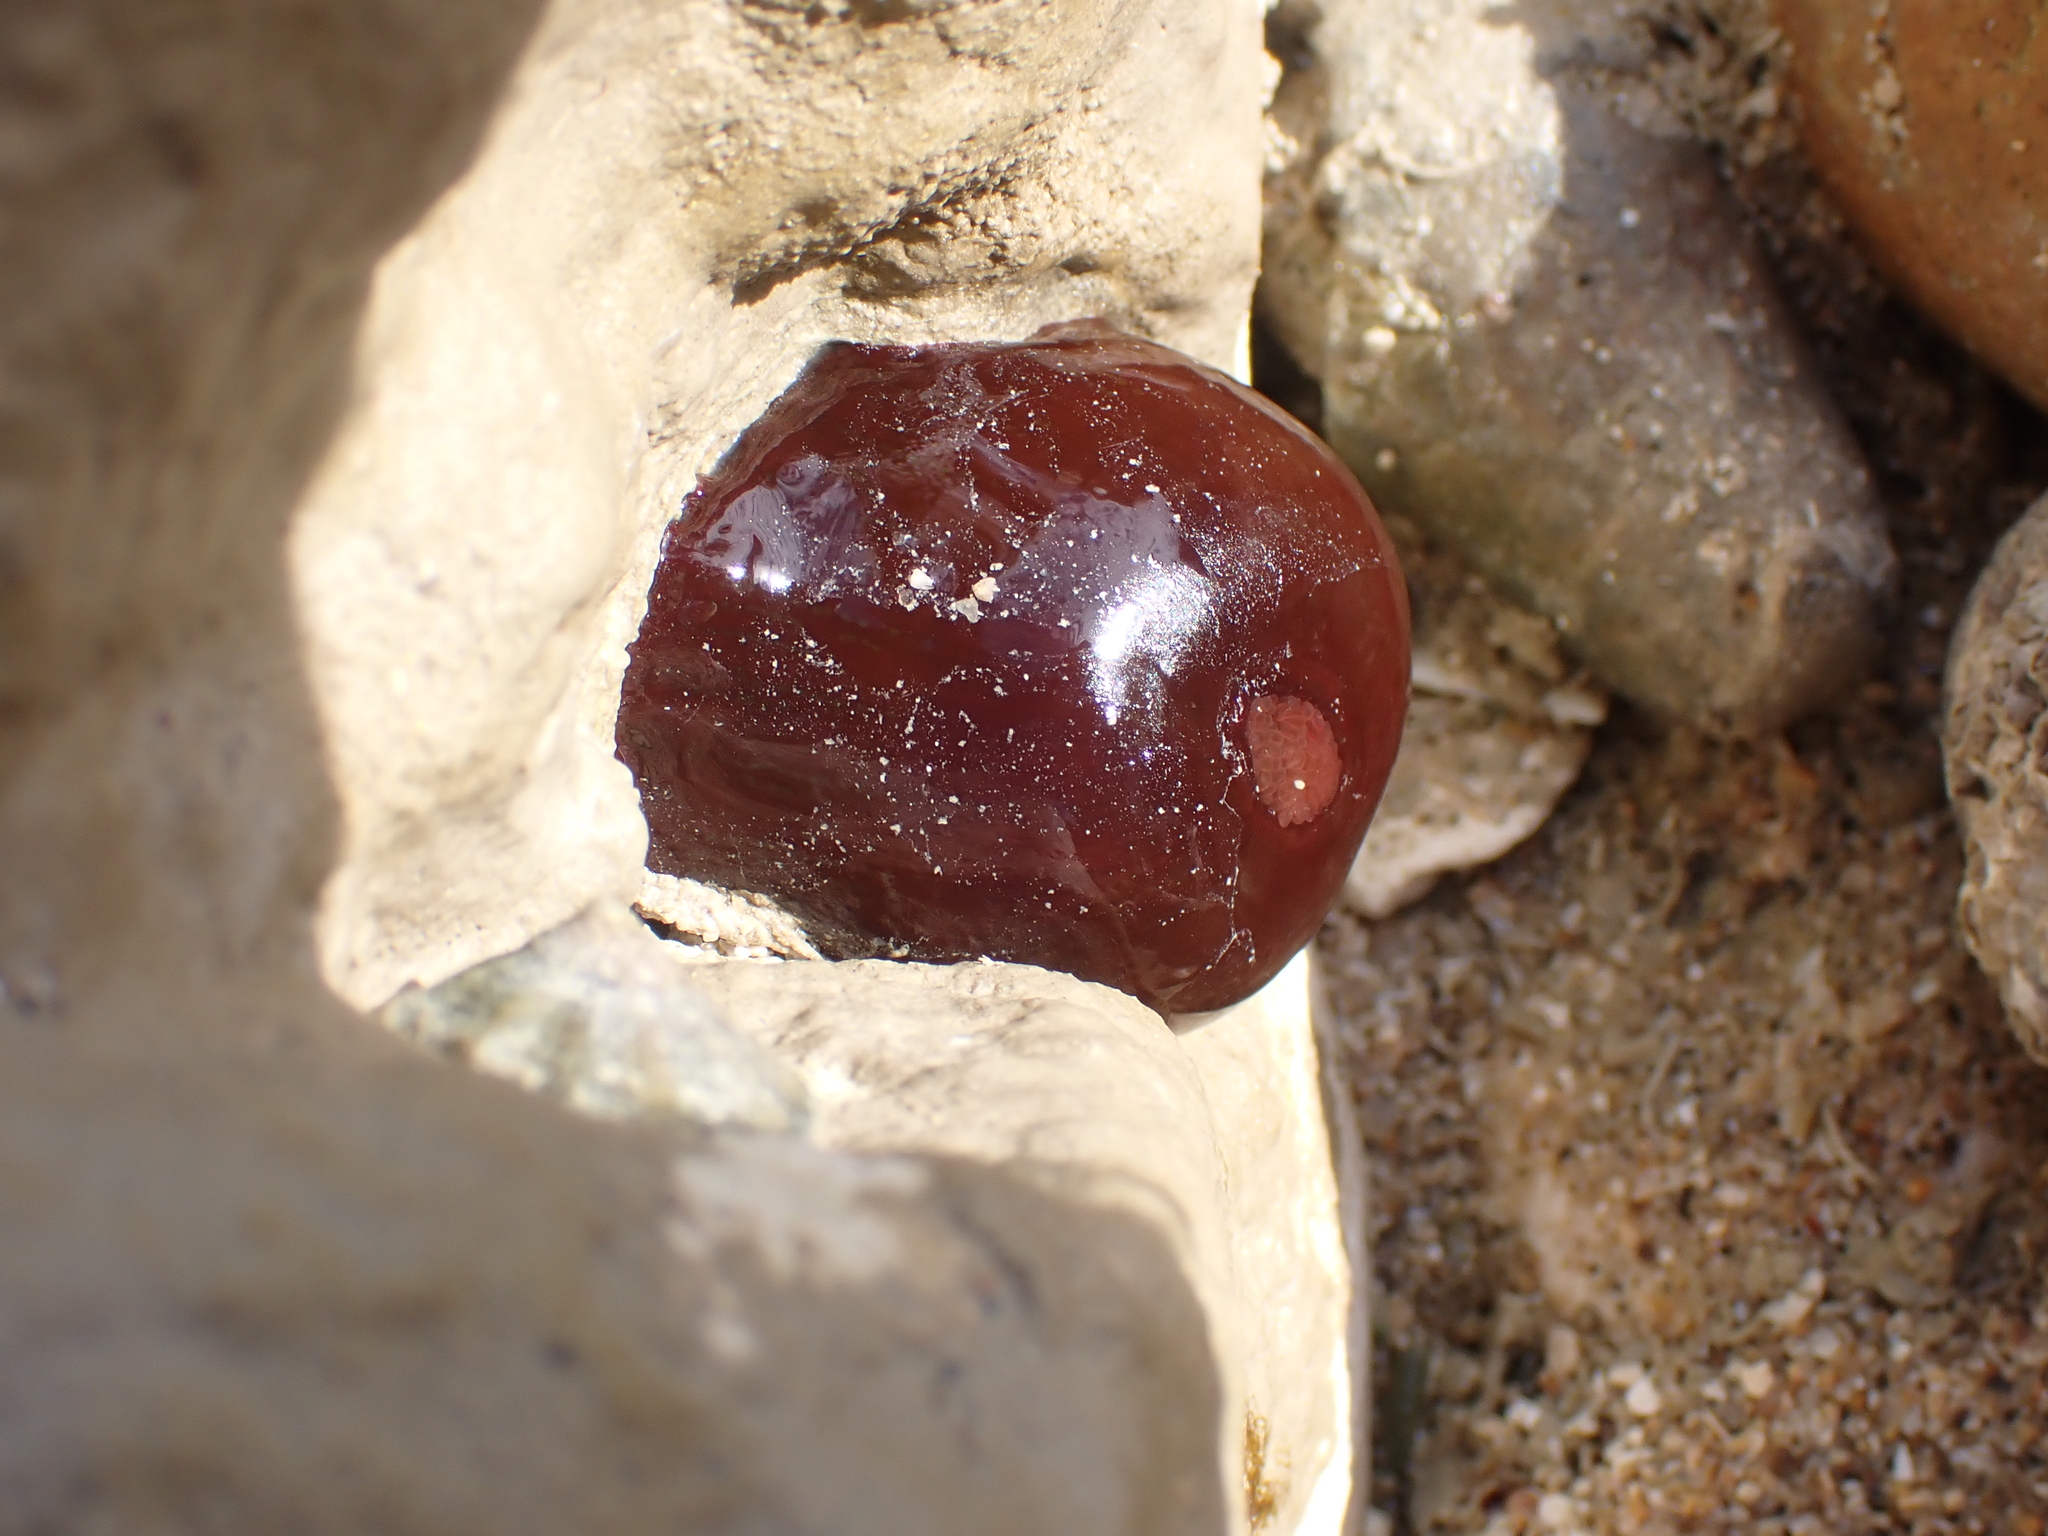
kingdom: Animalia
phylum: Cnidaria
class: Anthozoa
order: Actiniaria
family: Actiniidae
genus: Actinia
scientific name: Actinia equina
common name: Beadlet anemone
